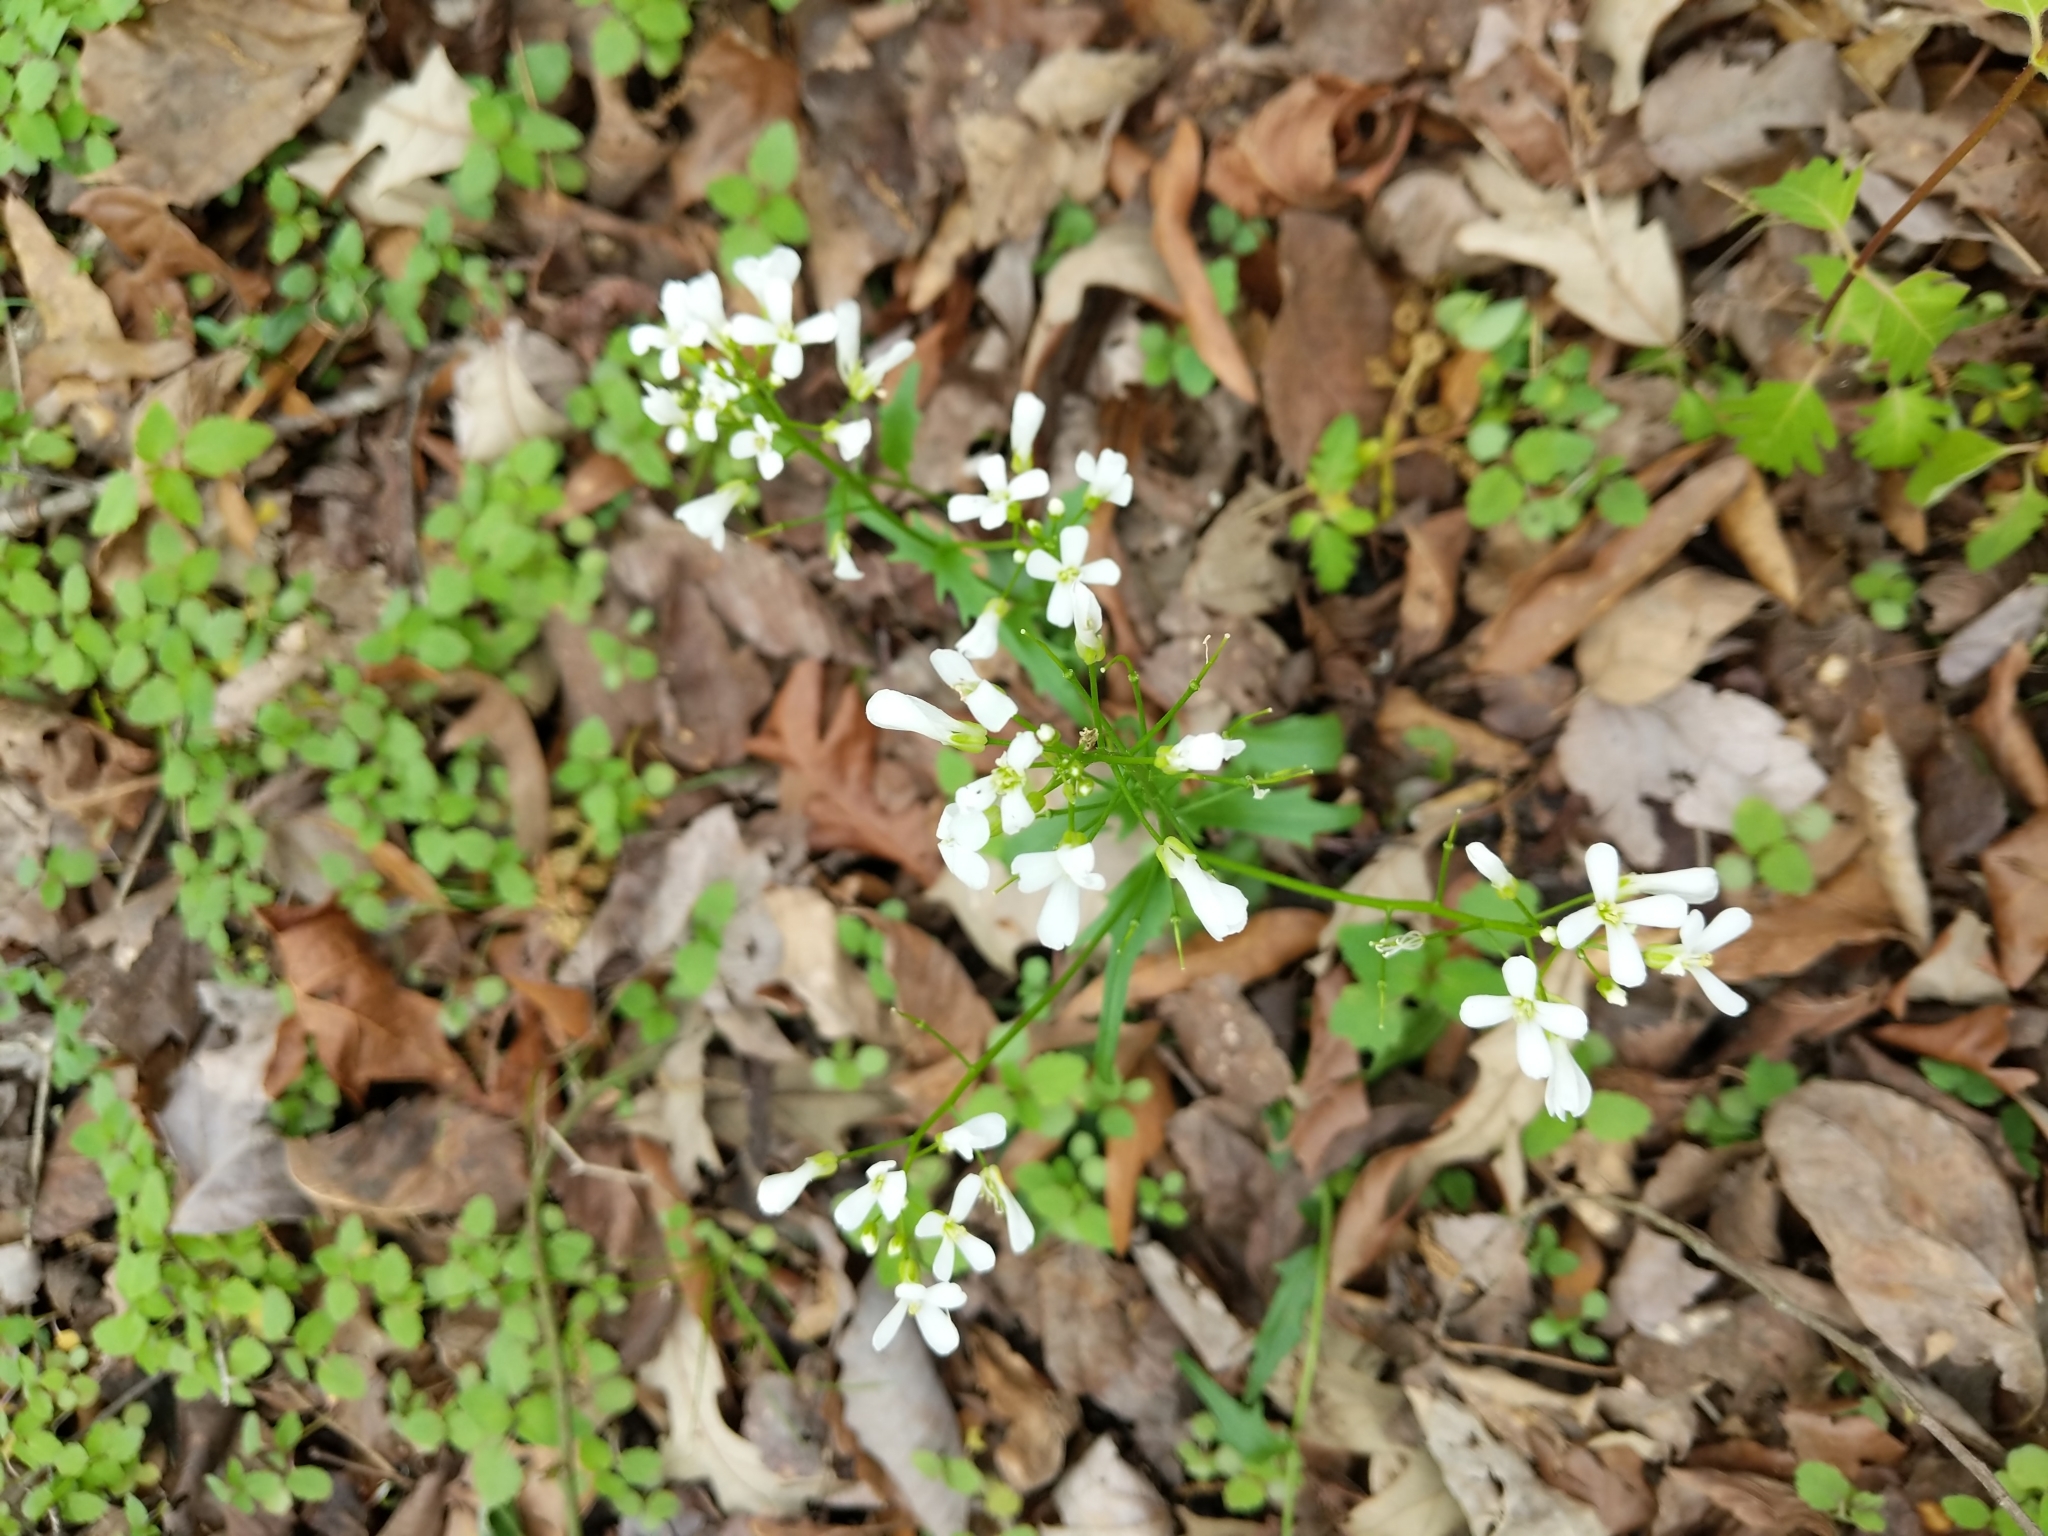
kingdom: Plantae
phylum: Tracheophyta
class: Magnoliopsida
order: Brassicales
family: Brassicaceae
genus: Cardamine
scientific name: Cardamine bulbosa
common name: Spring cress
